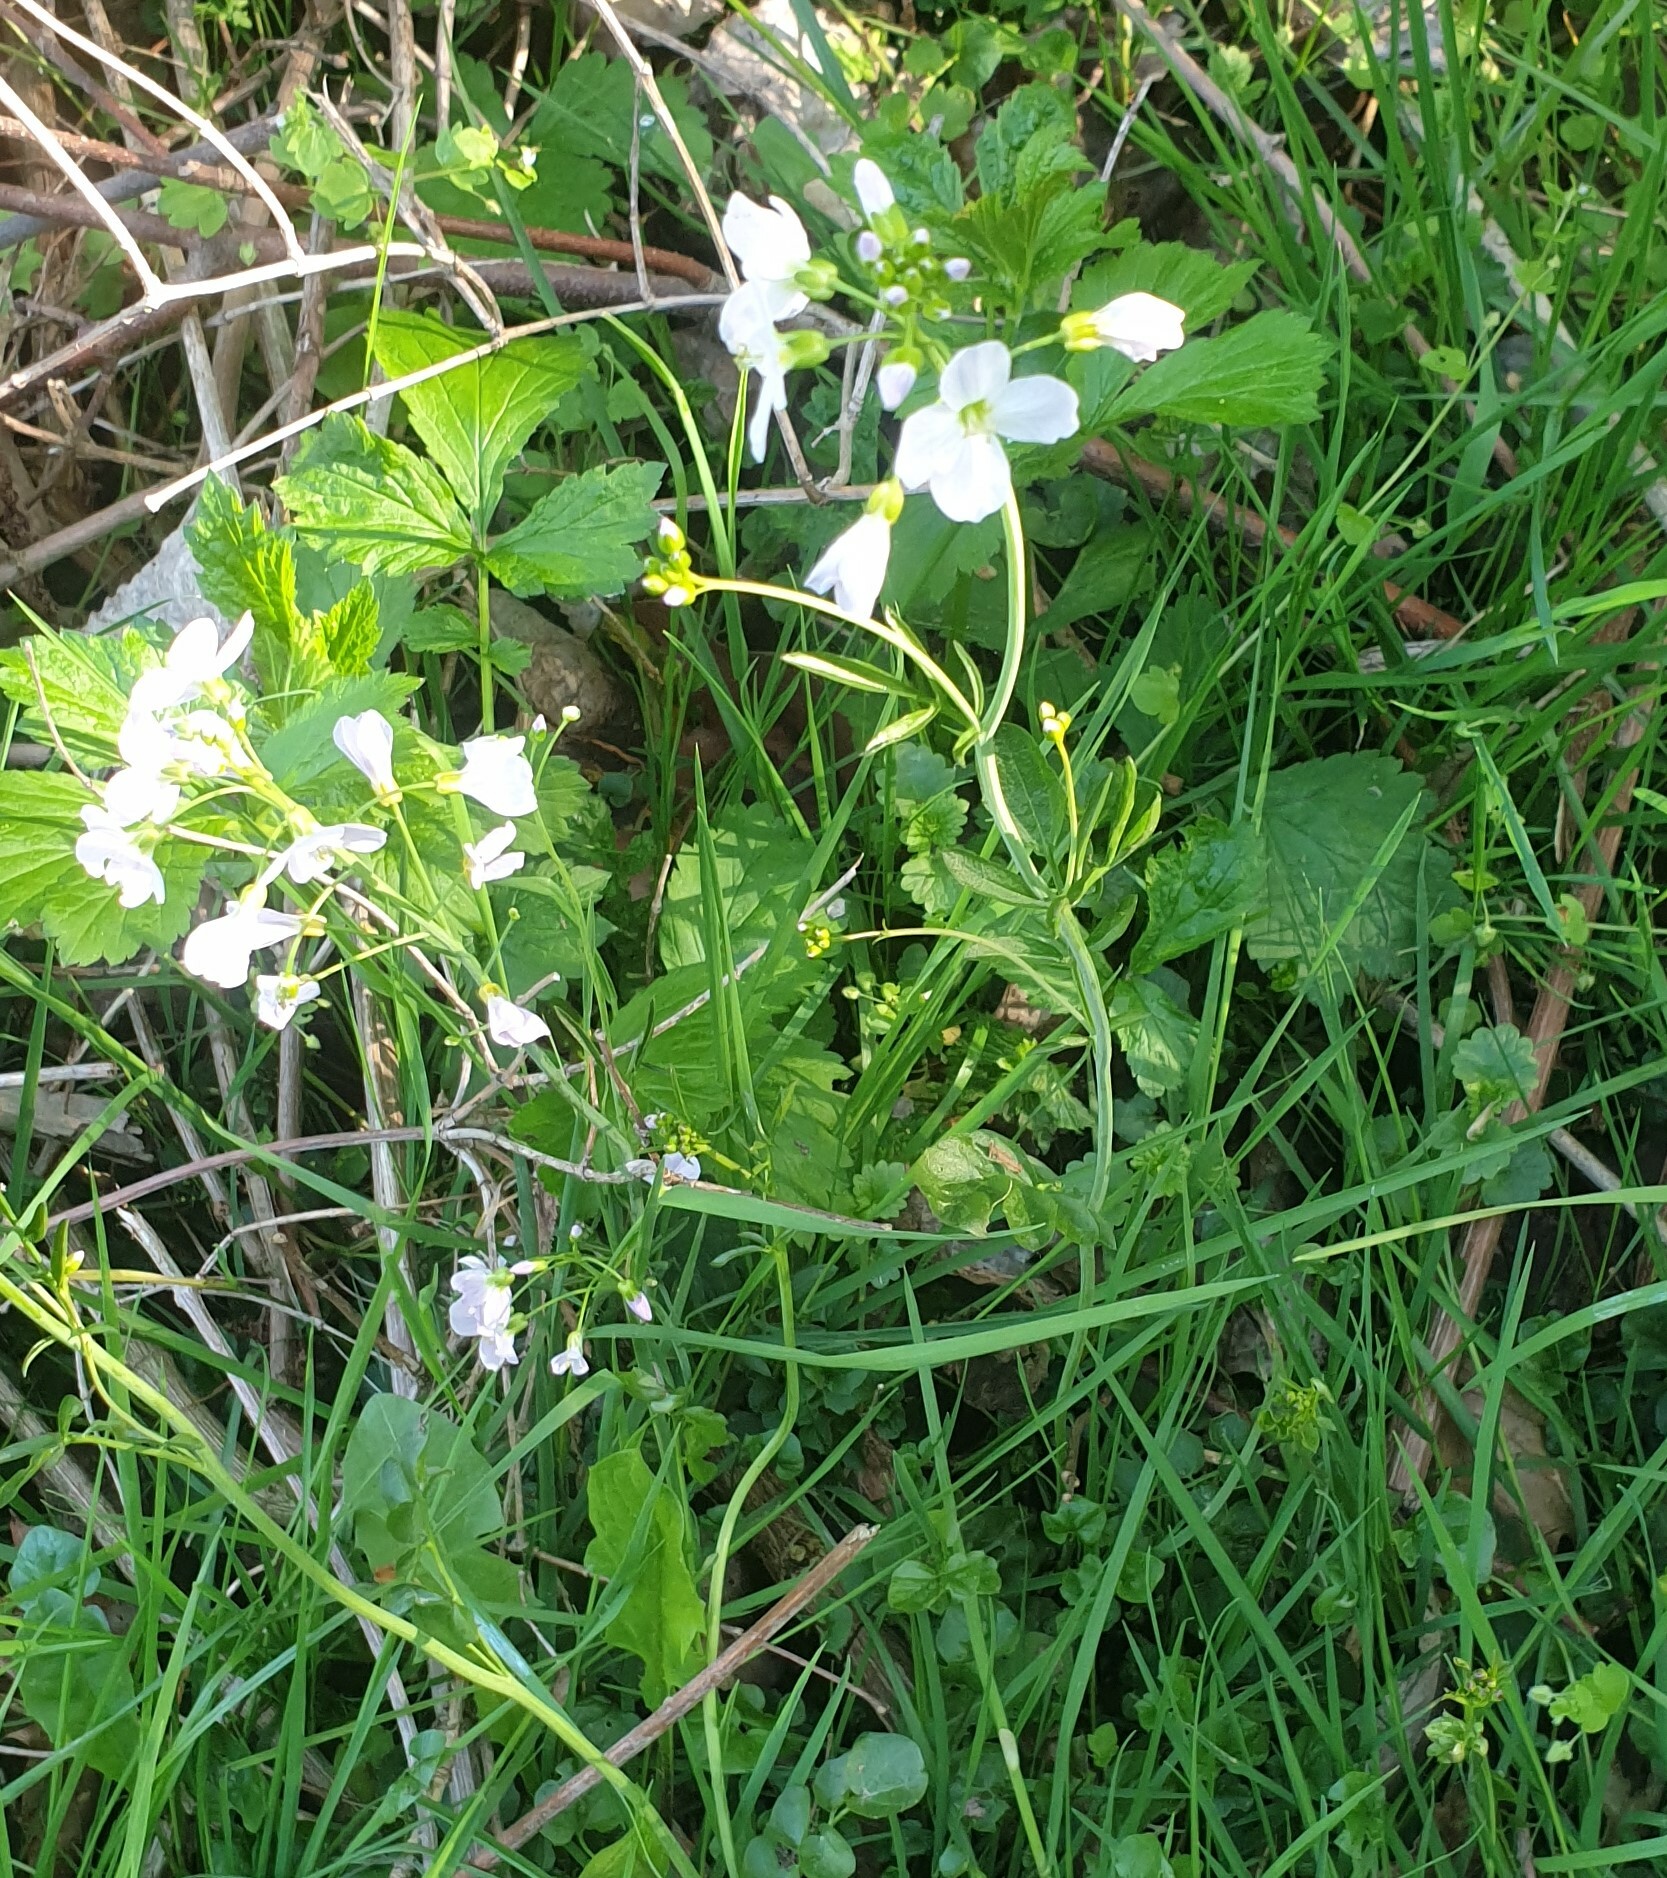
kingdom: Plantae
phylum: Tracheophyta
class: Magnoliopsida
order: Brassicales
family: Brassicaceae
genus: Cardamine
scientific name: Cardamine pratensis
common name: Cuckoo flower
